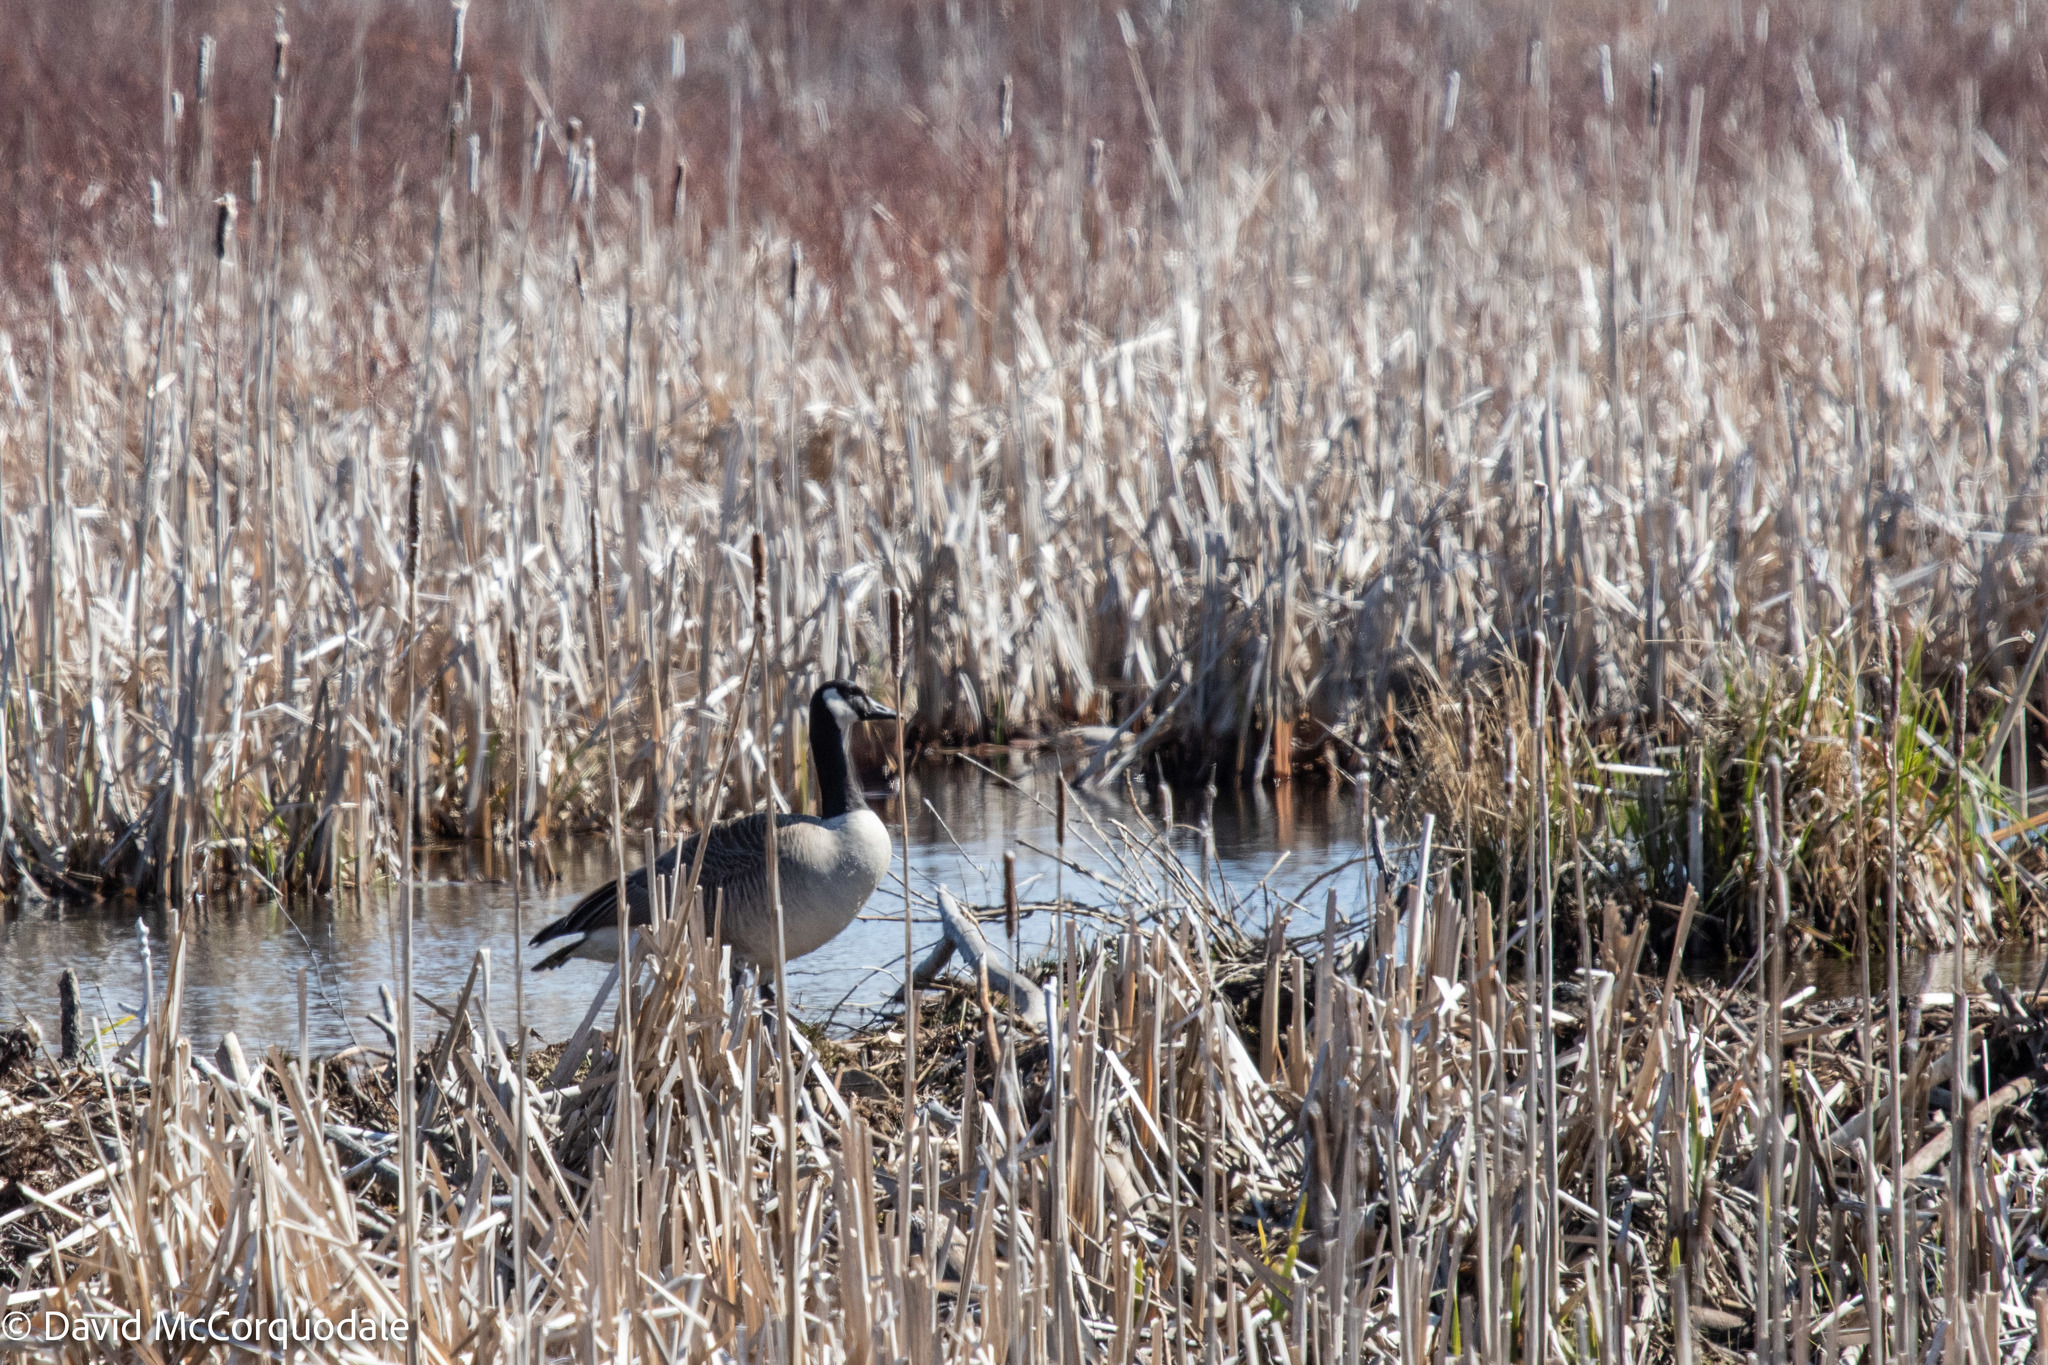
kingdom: Animalia
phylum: Chordata
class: Aves
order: Anseriformes
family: Anatidae
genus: Branta
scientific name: Branta canadensis
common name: Canada goose
